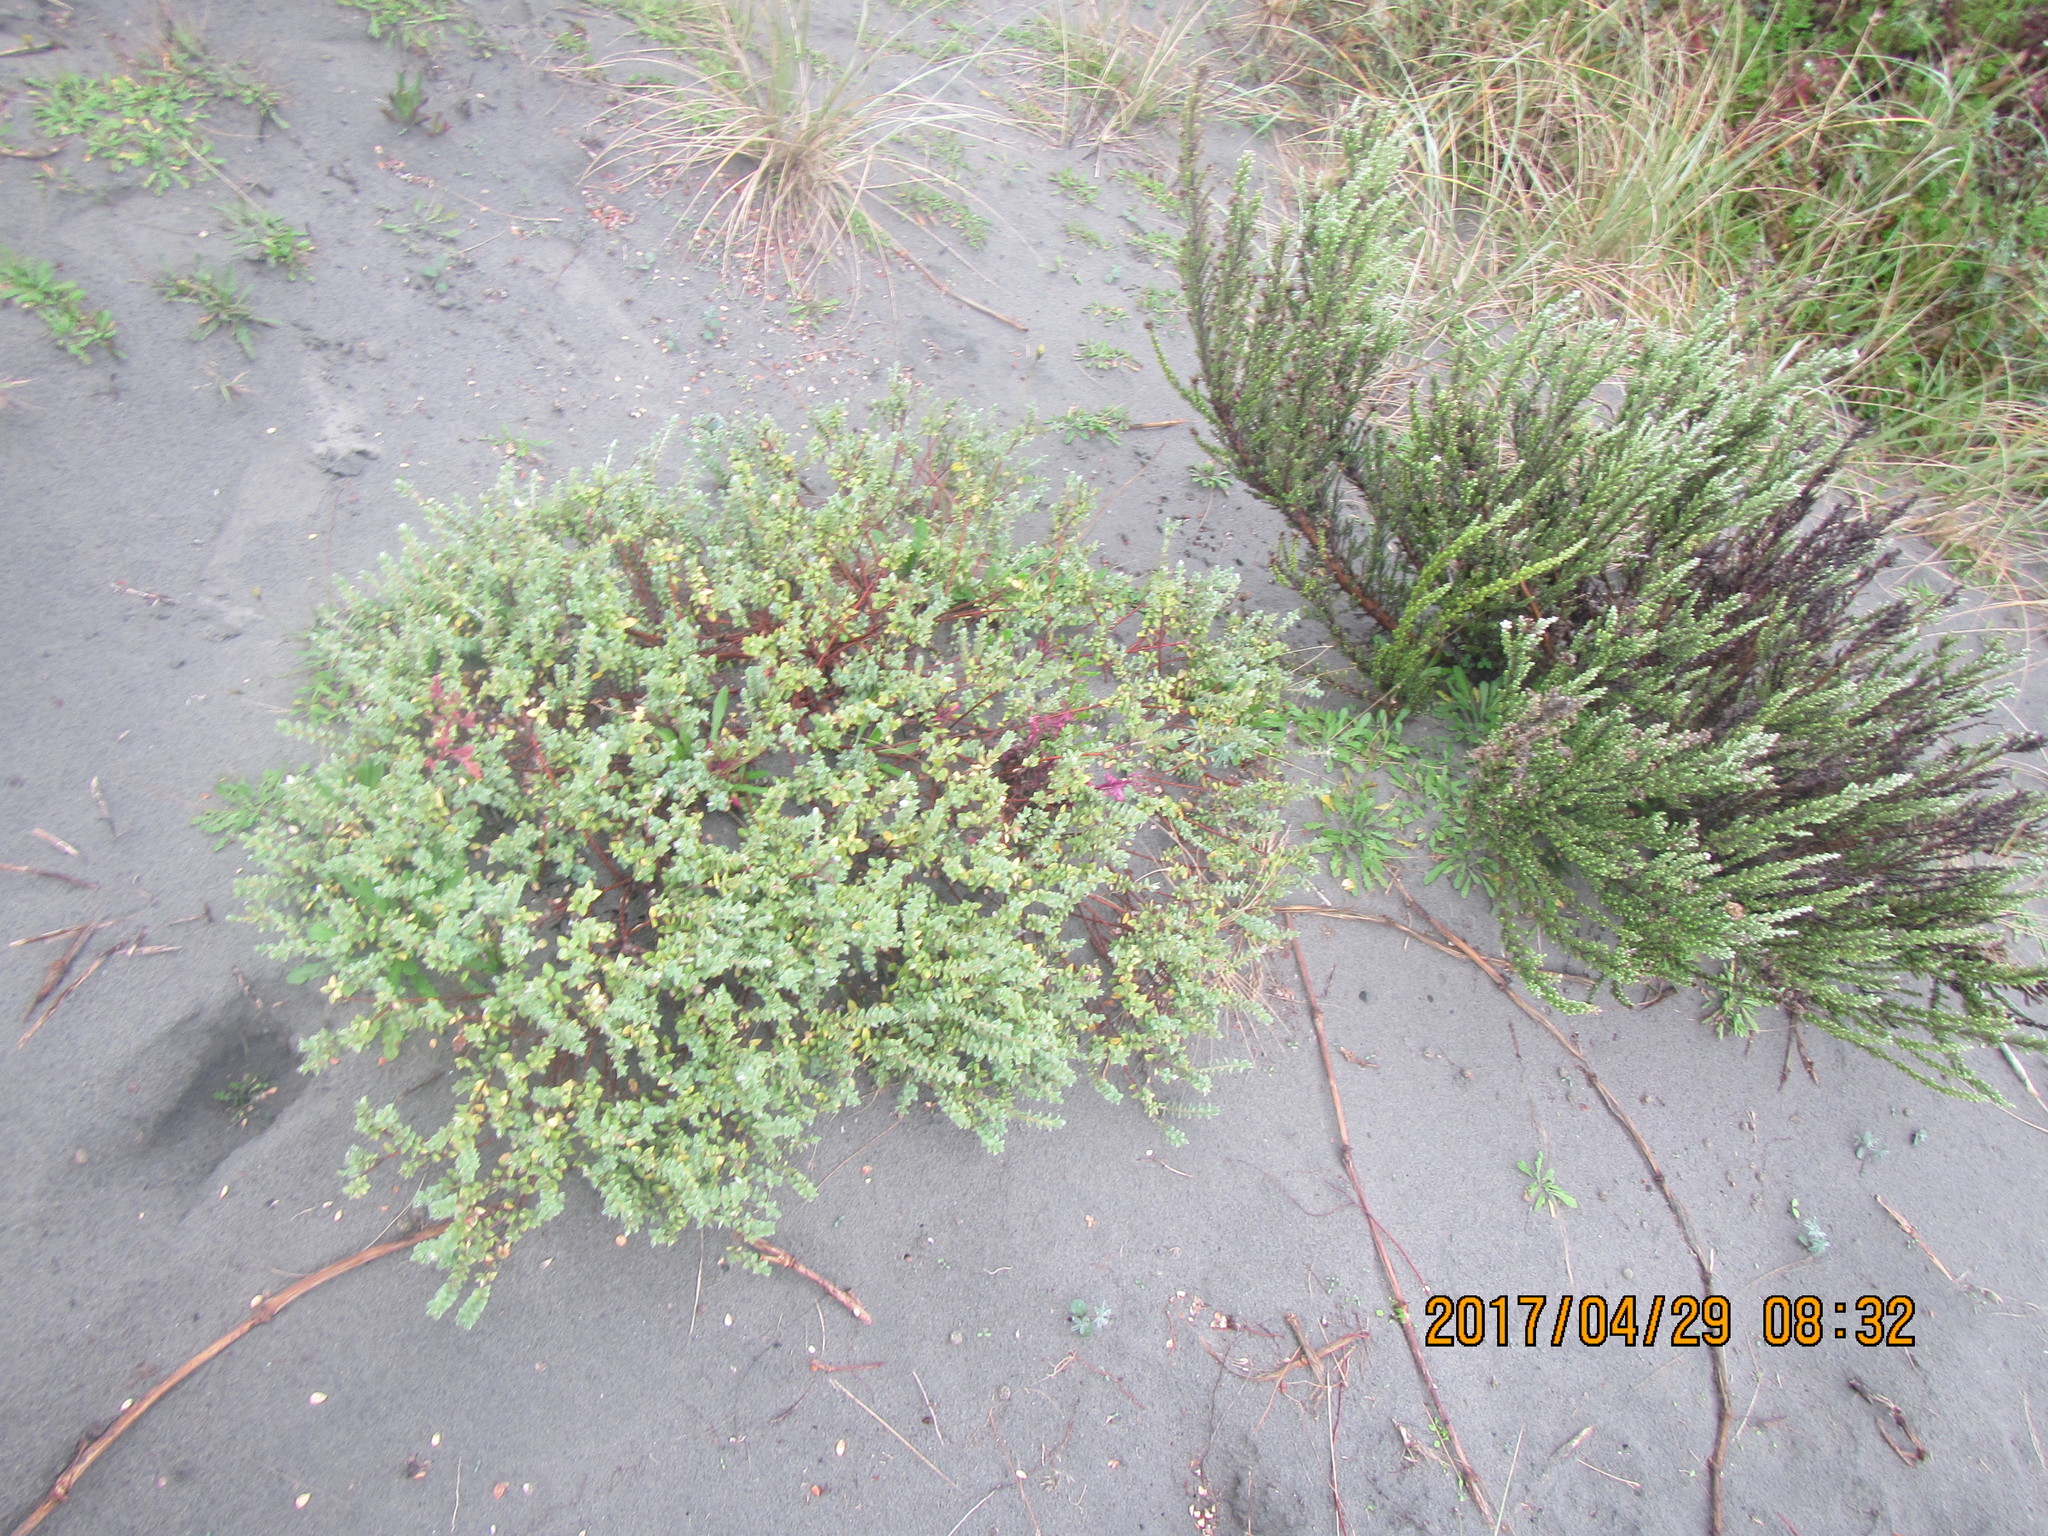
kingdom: Animalia
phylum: Arthropoda
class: Arachnida
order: Araneae
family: Lycosidae
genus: Anoteropsis
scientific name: Anoteropsis litoralis
